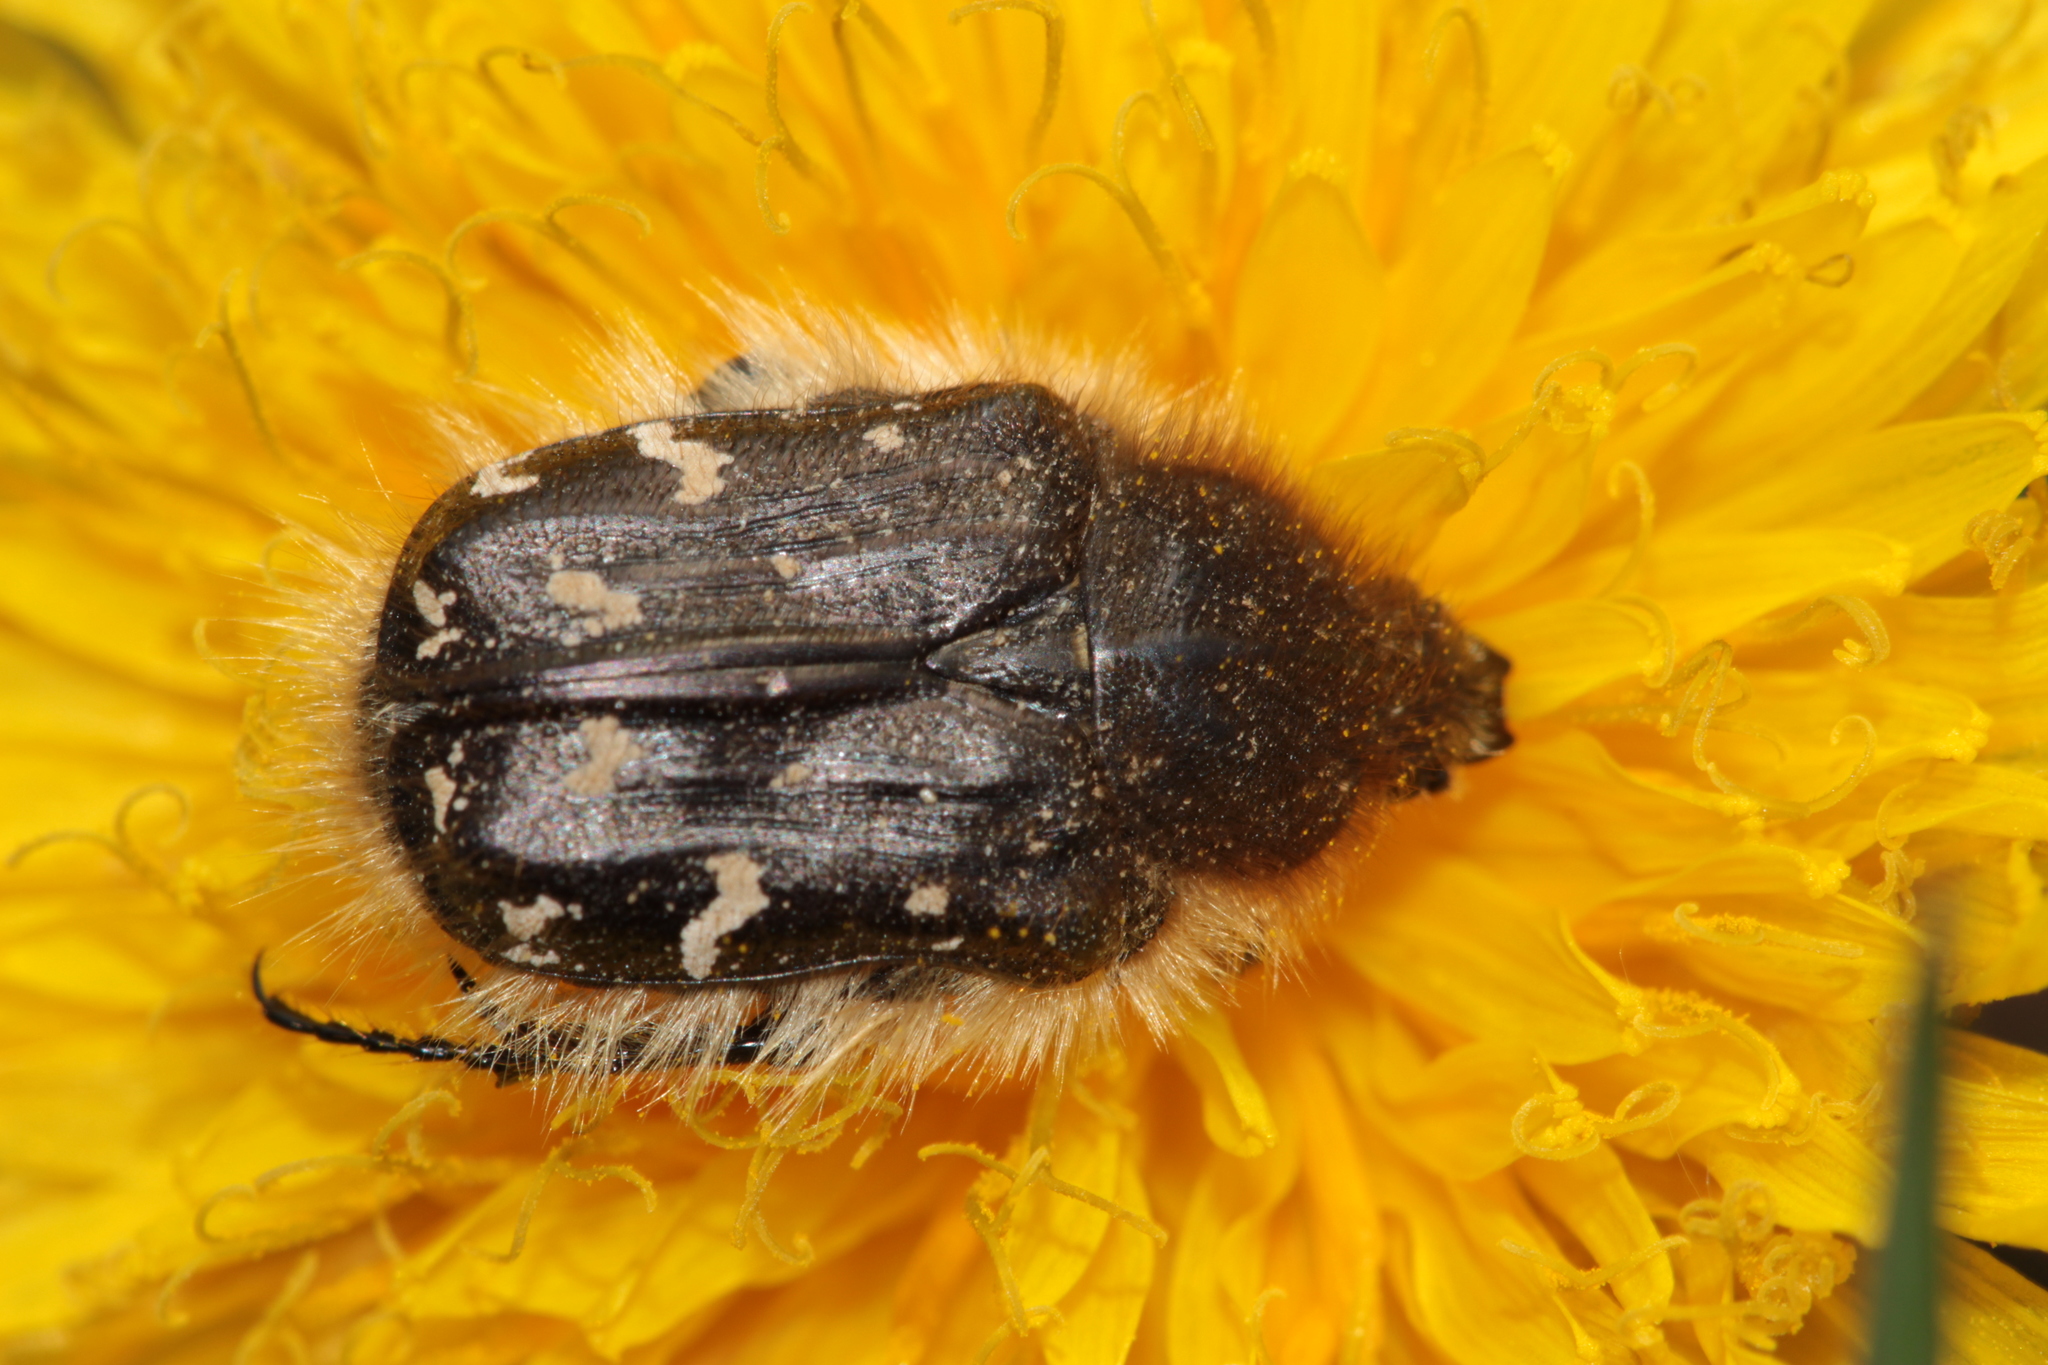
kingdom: Animalia
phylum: Arthropoda
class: Insecta
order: Coleoptera
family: Scarabaeidae
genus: Tropinota
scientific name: Tropinota hirta
